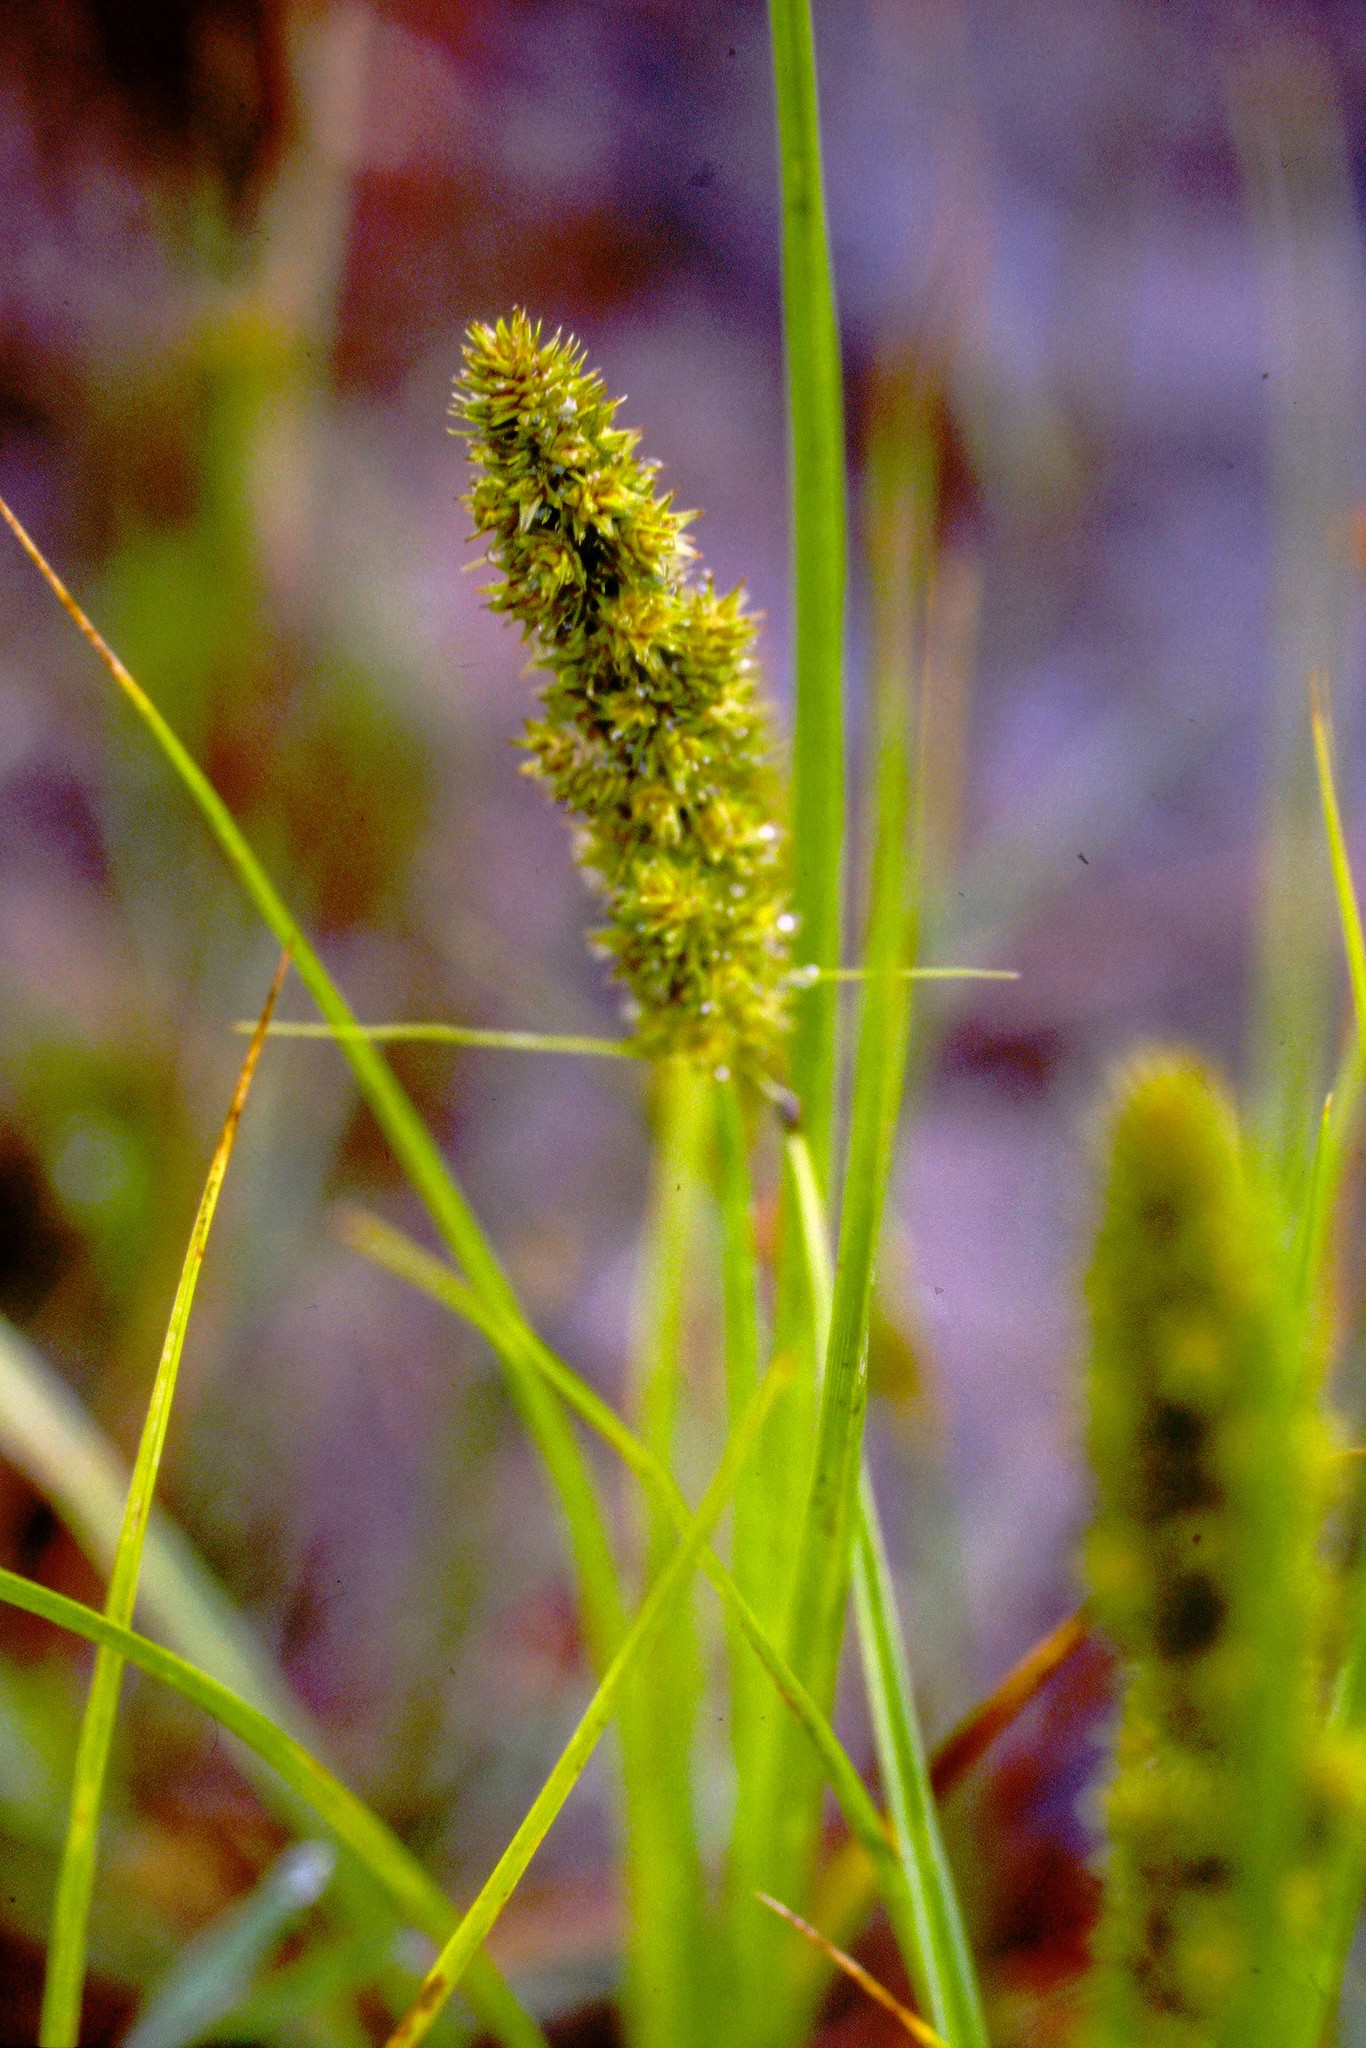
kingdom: Plantae
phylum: Tracheophyta
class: Liliopsida
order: Poales
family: Cyperaceae
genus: Carex
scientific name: Carex vulpinoidea
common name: American fox-sedge
